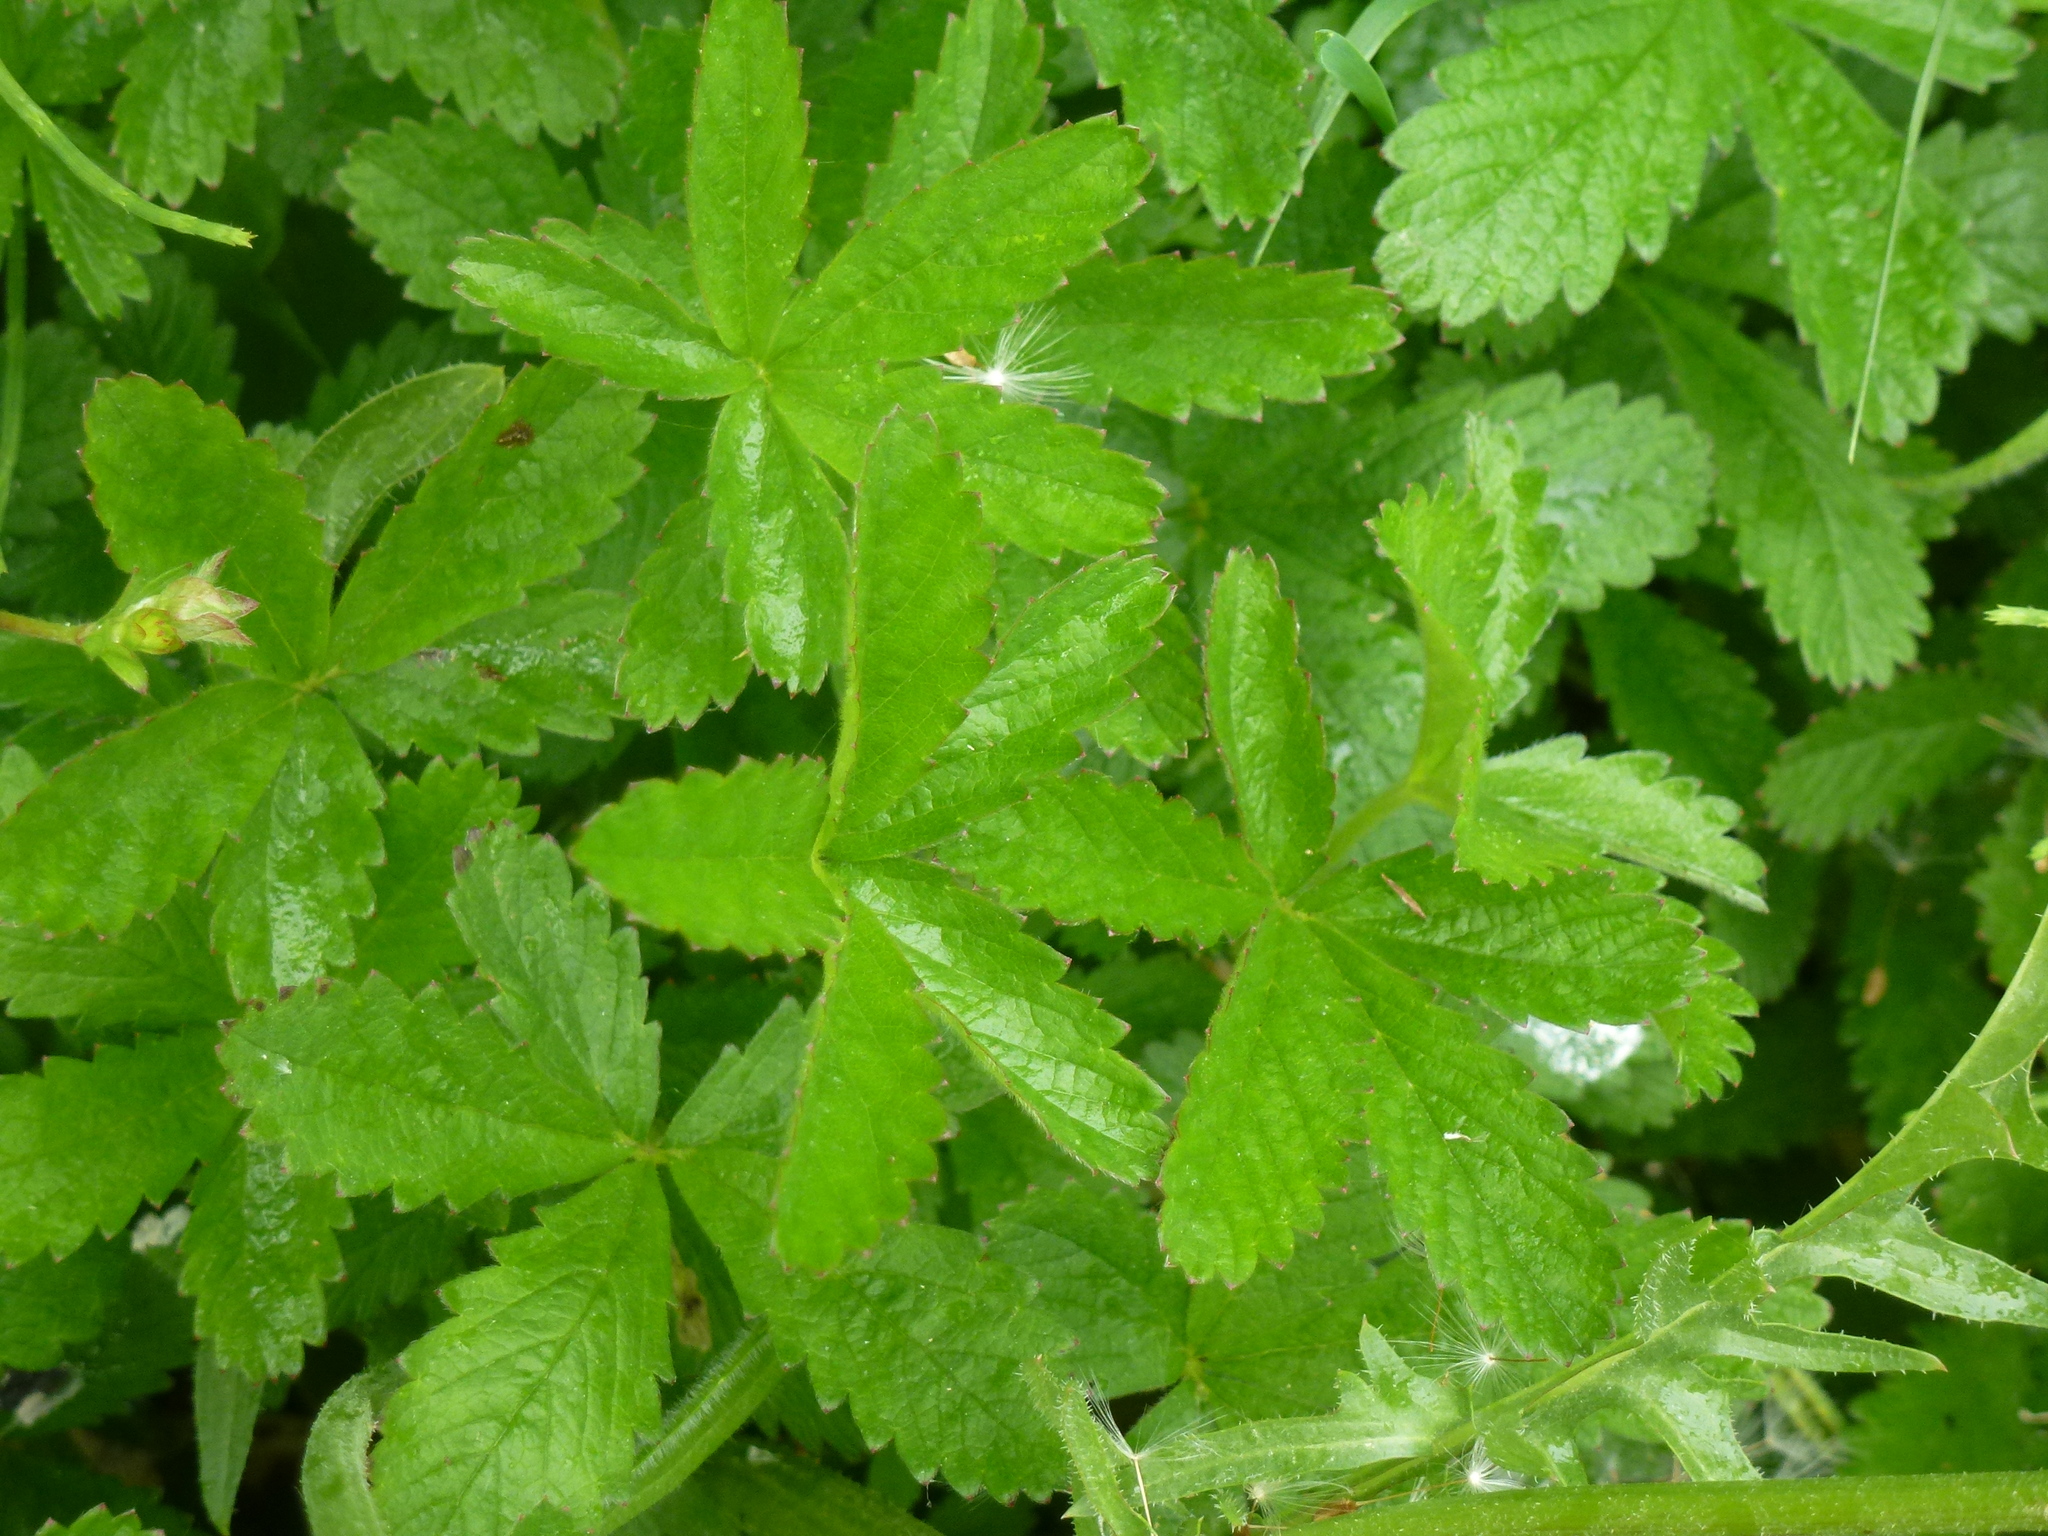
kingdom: Plantae
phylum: Tracheophyta
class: Magnoliopsida
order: Rosales
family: Rosaceae
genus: Potentilla
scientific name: Potentilla reptans
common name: Creeping cinquefoil
